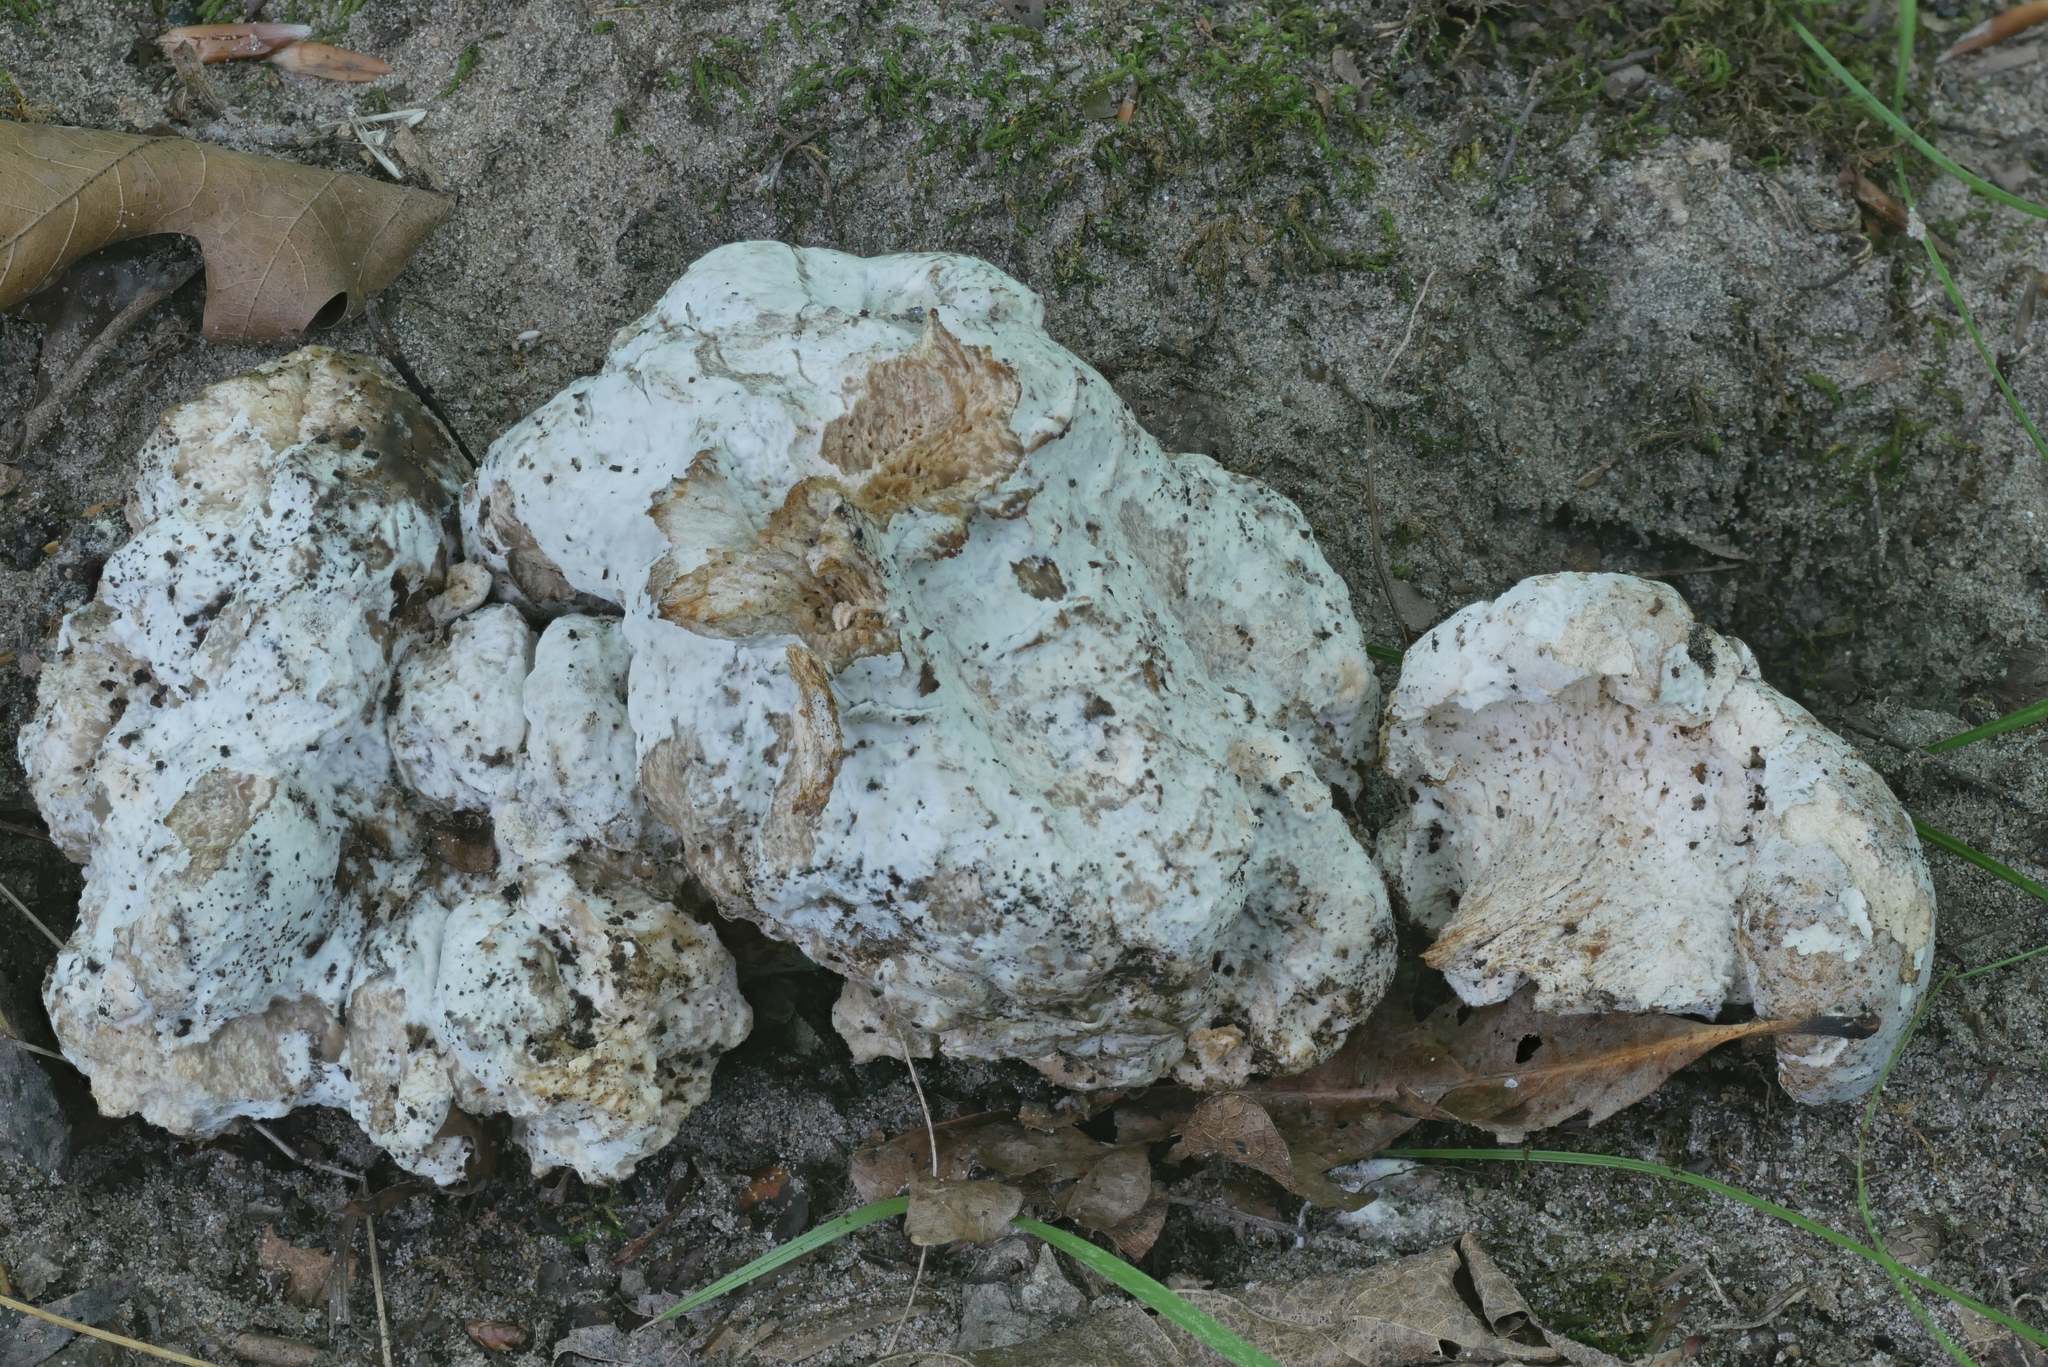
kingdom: Fungi
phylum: Ascomycota
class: Sordariomycetes
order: Hypocreales
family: Hypocreaceae
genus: Mycogone
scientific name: Mycogone calospora
